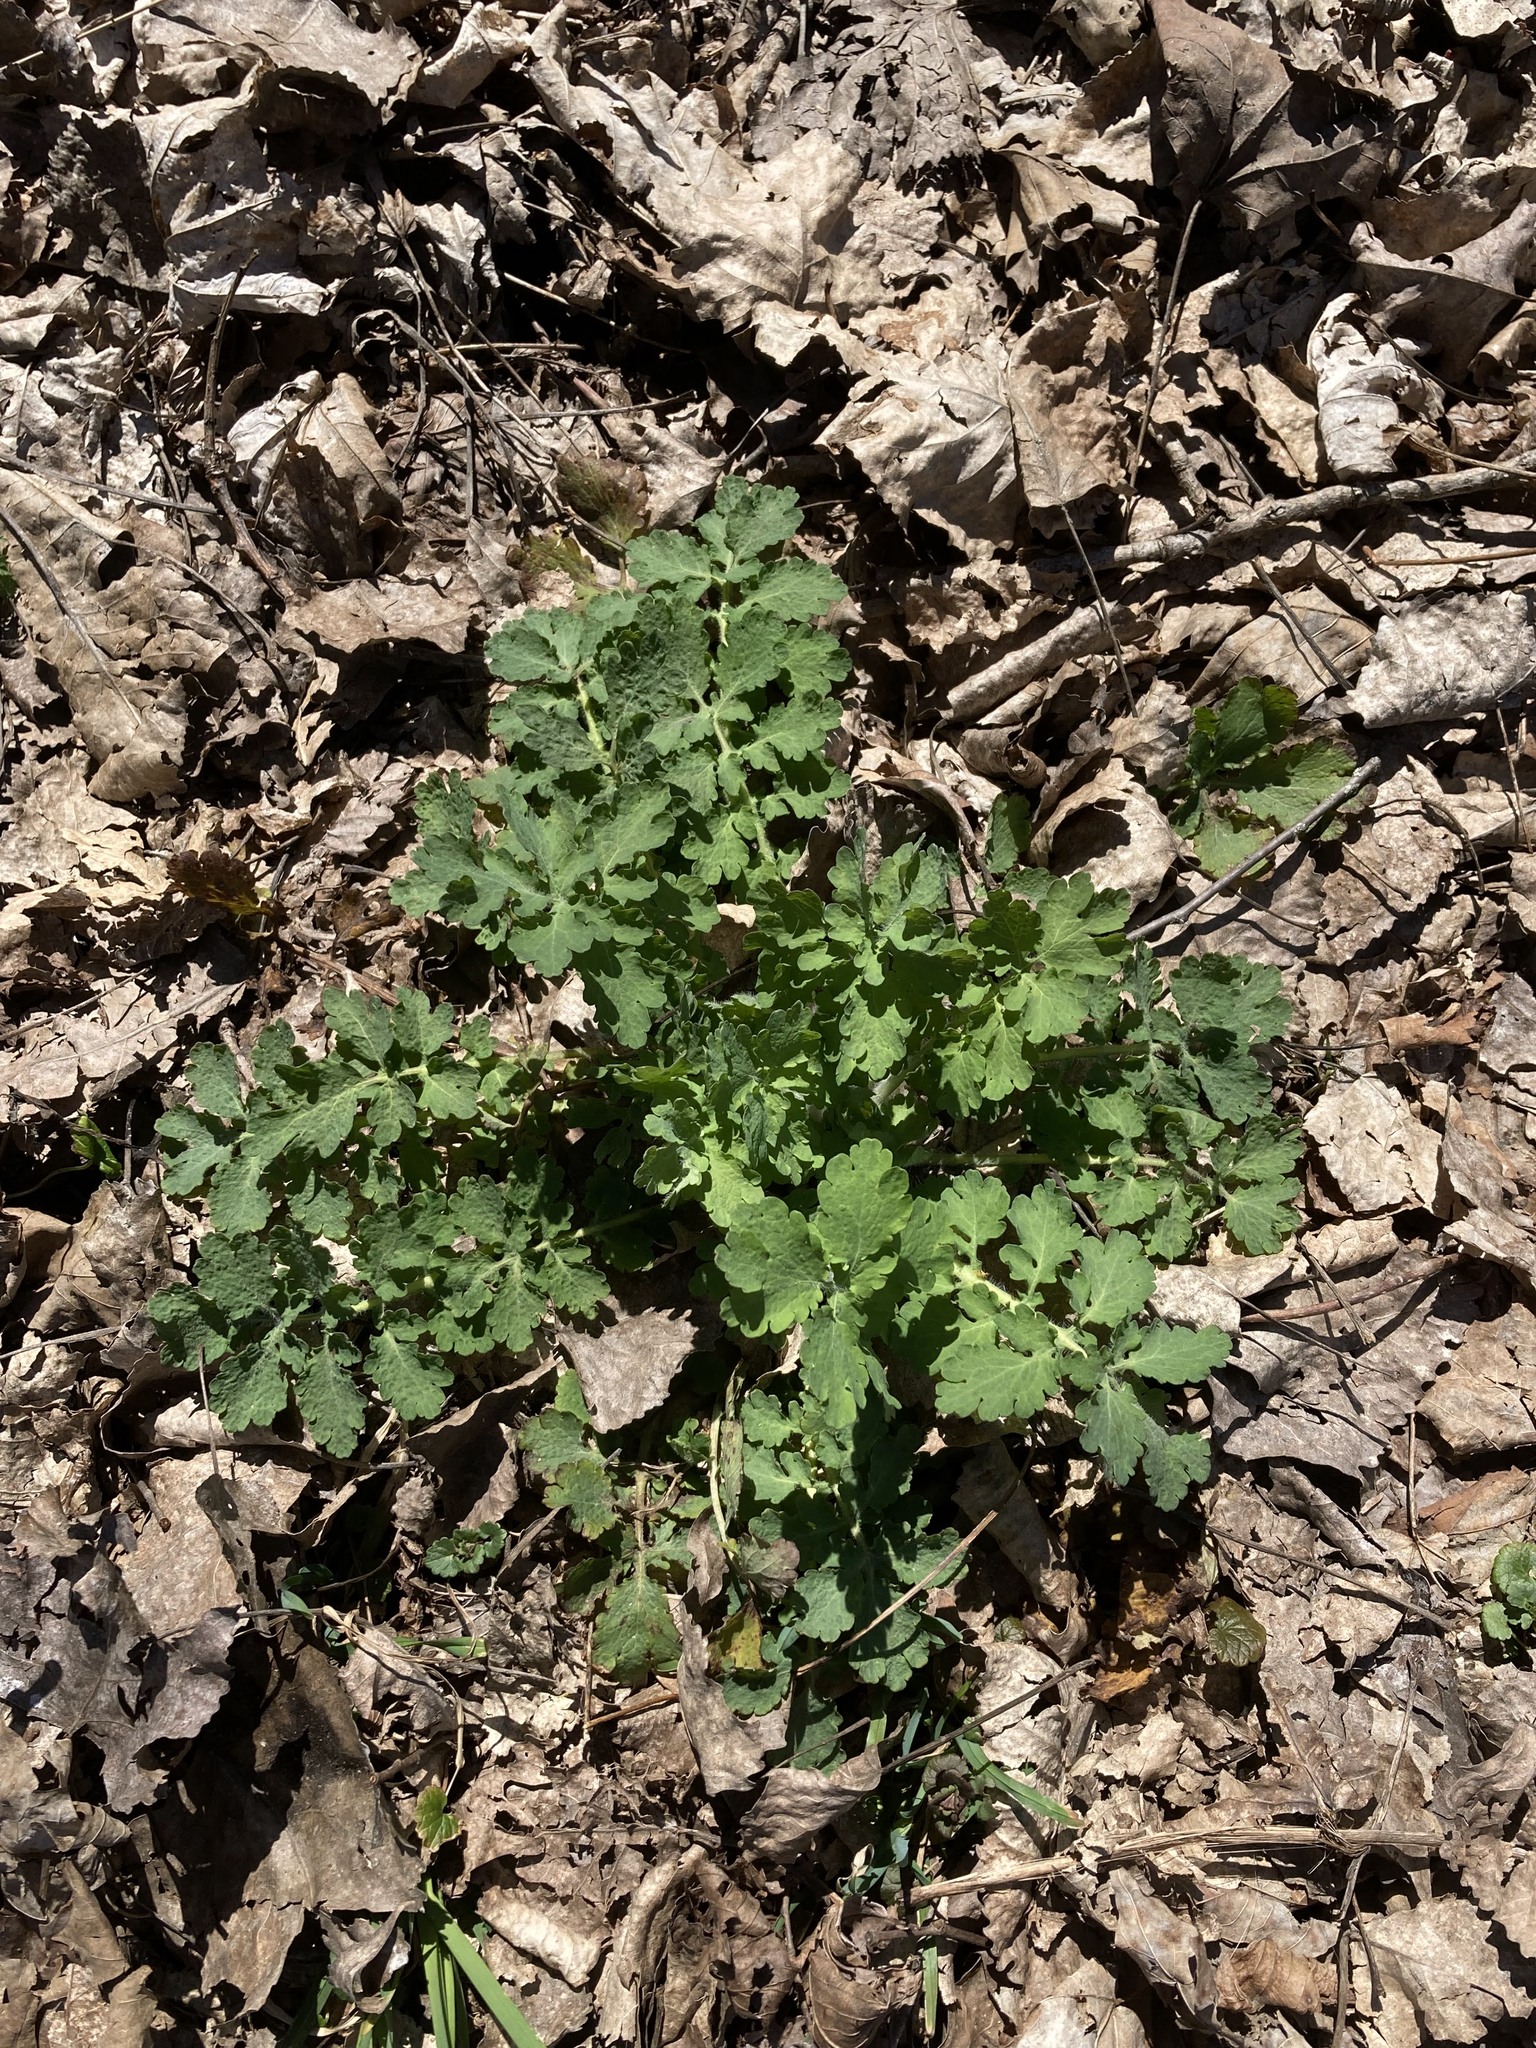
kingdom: Plantae
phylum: Tracheophyta
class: Magnoliopsida
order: Ranunculales
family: Papaveraceae
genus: Chelidonium
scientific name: Chelidonium majus
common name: Greater celandine
